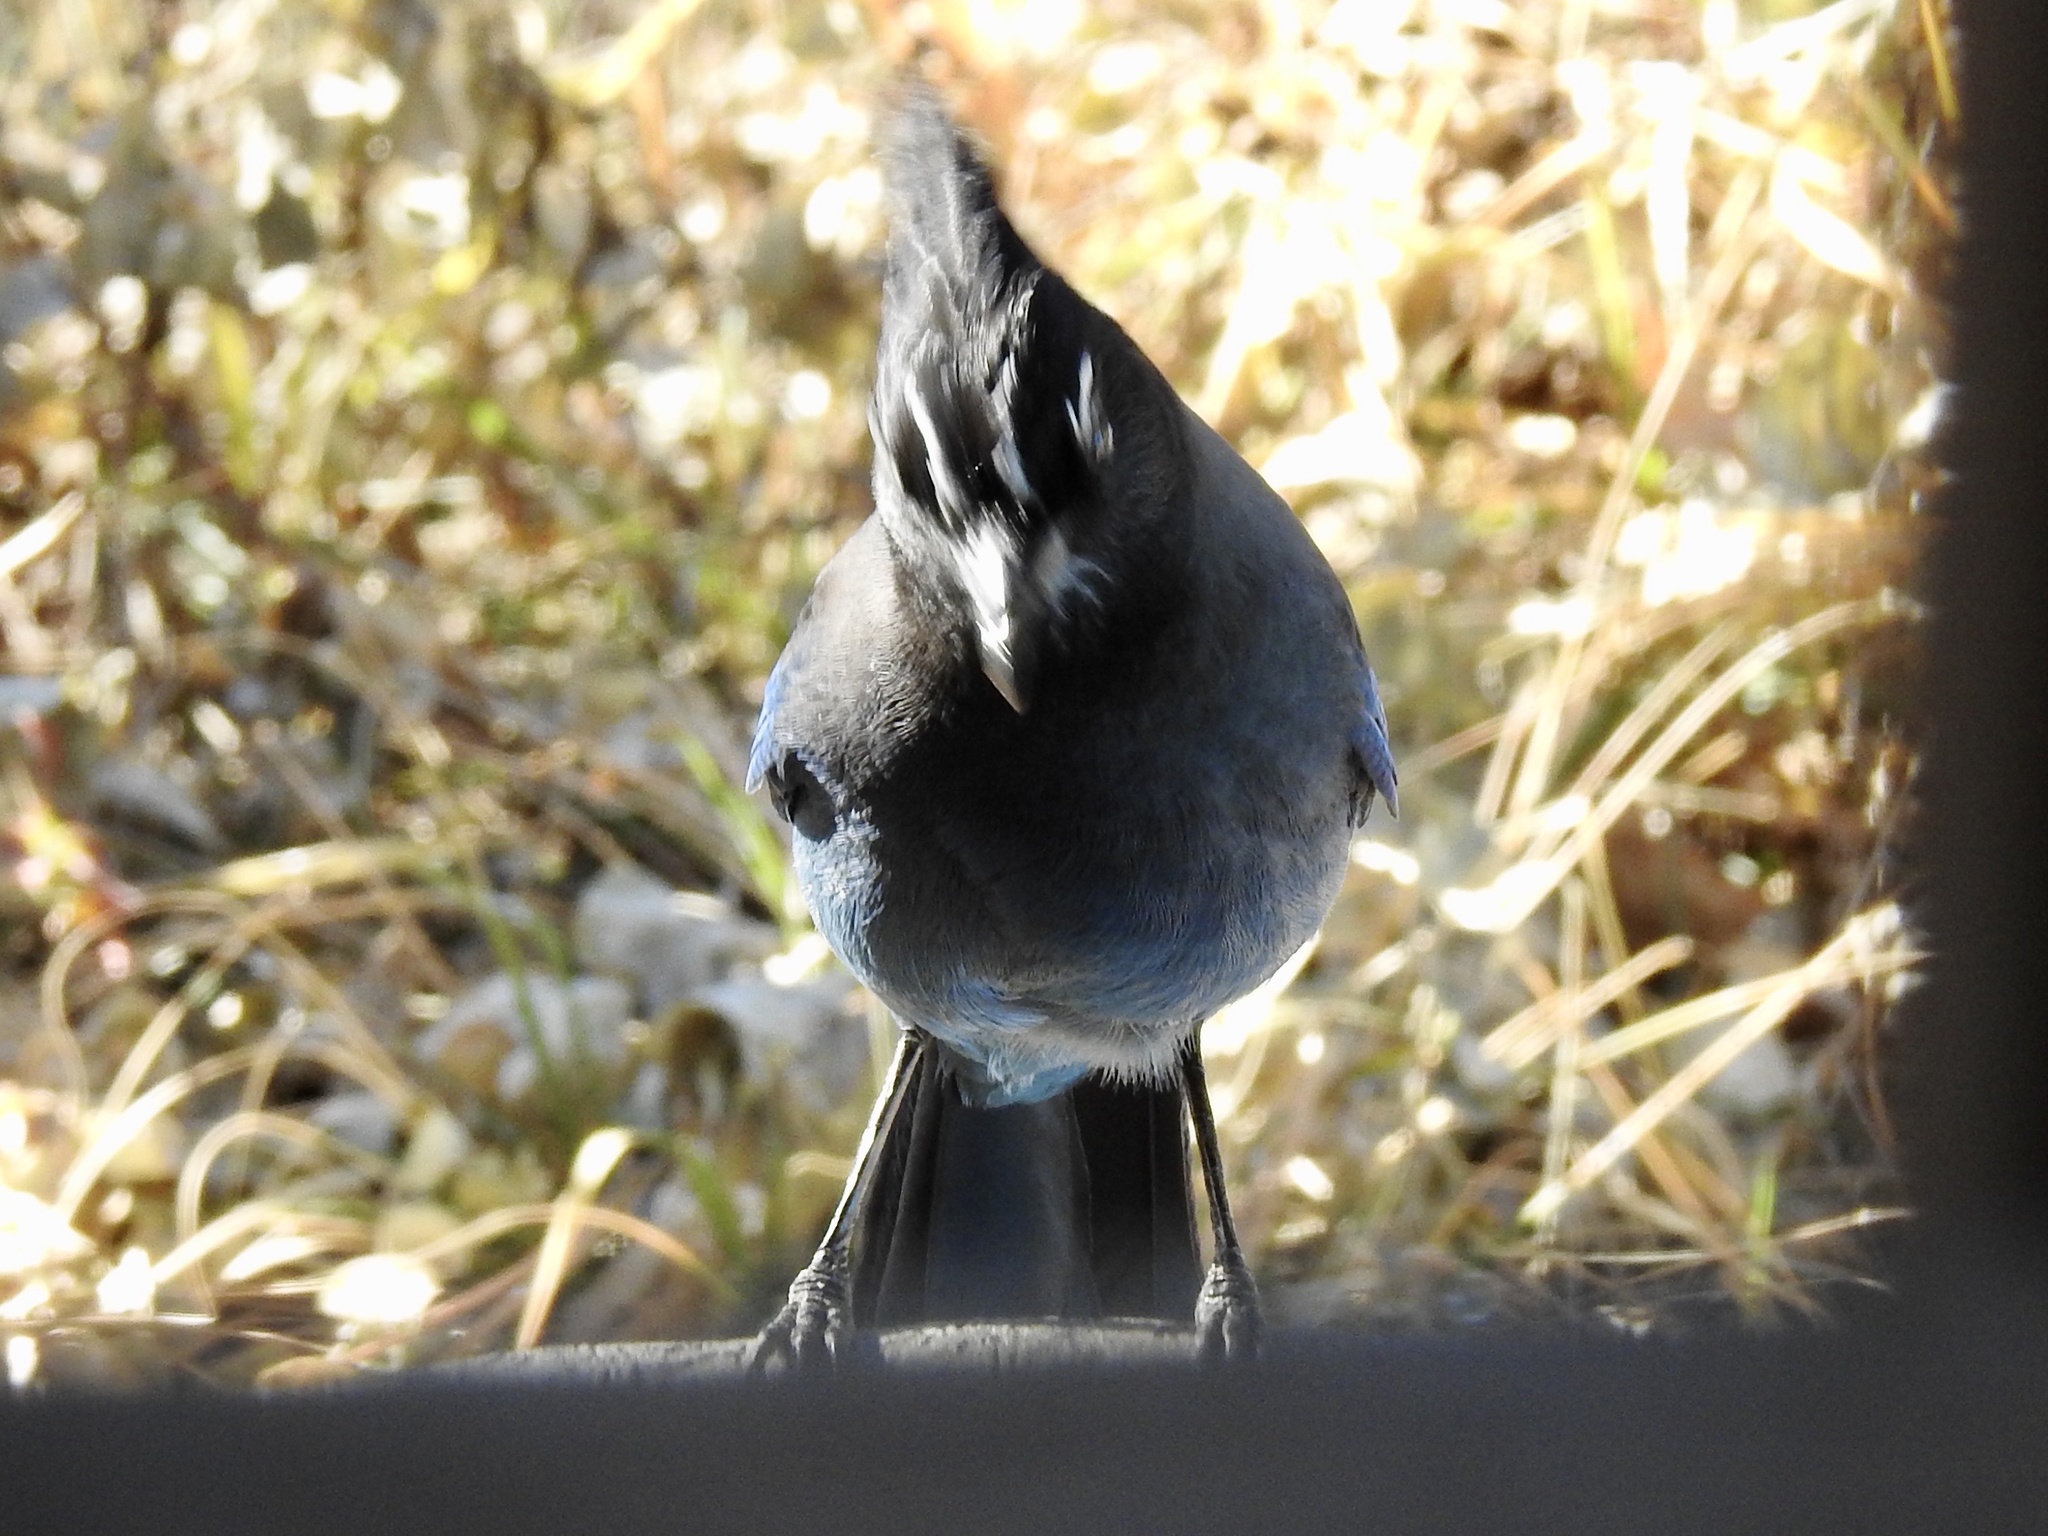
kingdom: Animalia
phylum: Chordata
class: Aves
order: Passeriformes
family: Corvidae
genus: Cyanocitta
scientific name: Cyanocitta stelleri
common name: Steller's jay
